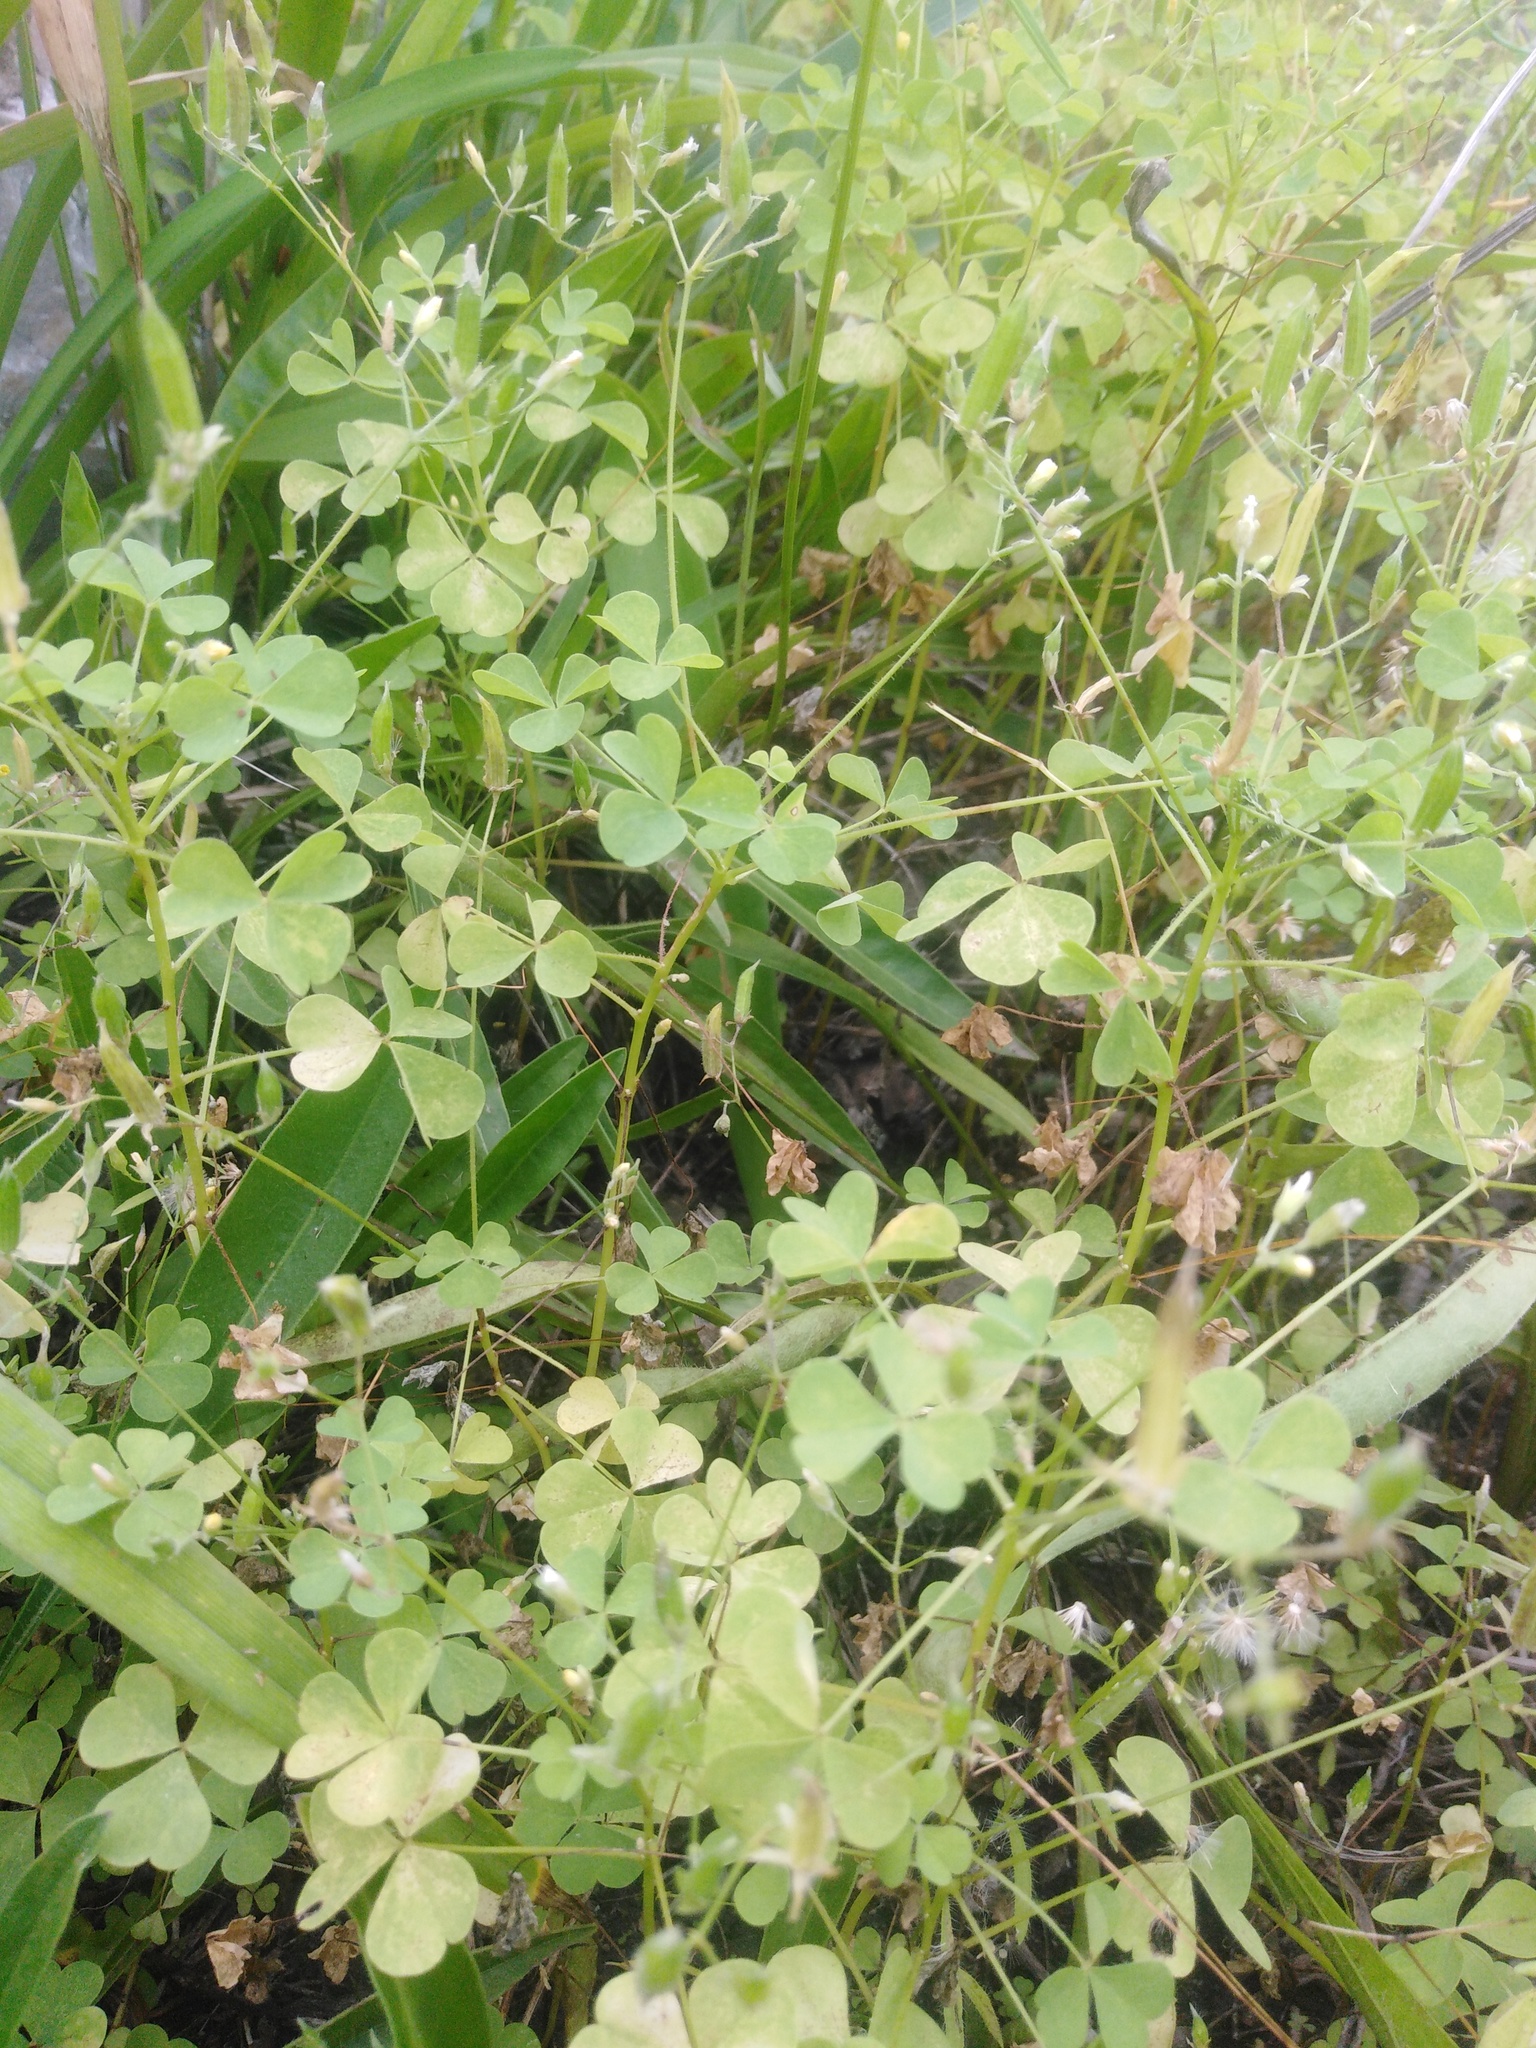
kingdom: Plantae
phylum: Tracheophyta
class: Magnoliopsida
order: Oxalidales
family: Oxalidaceae
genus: Oxalis
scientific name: Oxalis stricta
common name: Upright yellow-sorrel
